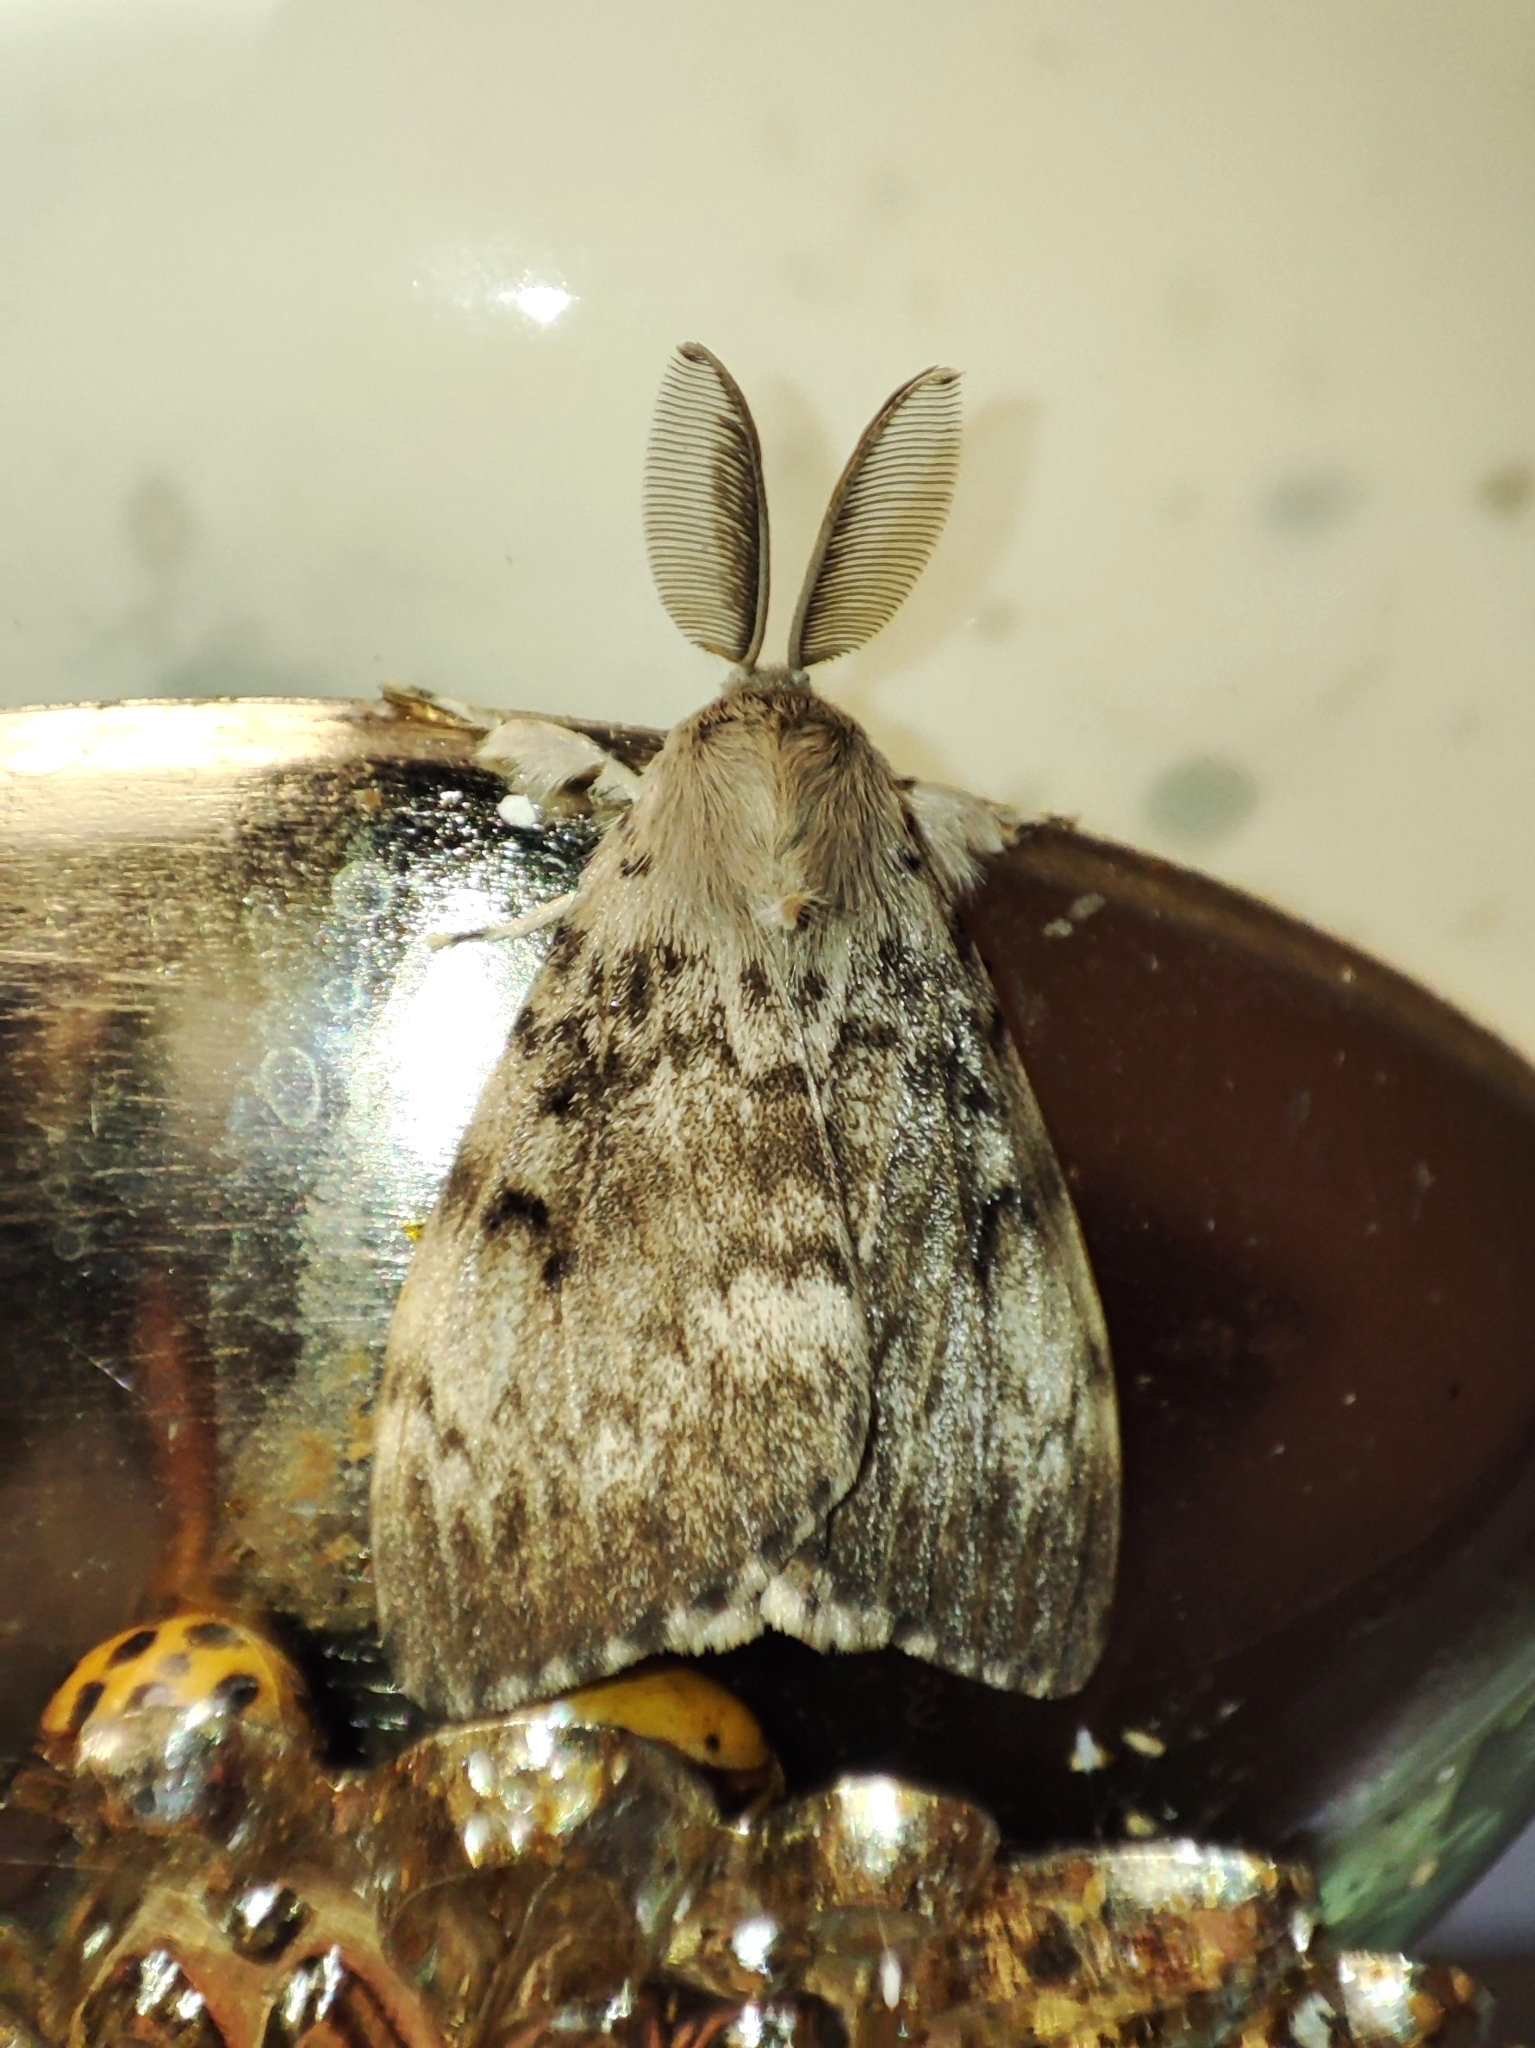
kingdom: Animalia
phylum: Arthropoda
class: Insecta
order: Lepidoptera
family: Erebidae
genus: Lymantria
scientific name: Lymantria dispar
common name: Gypsy moth
